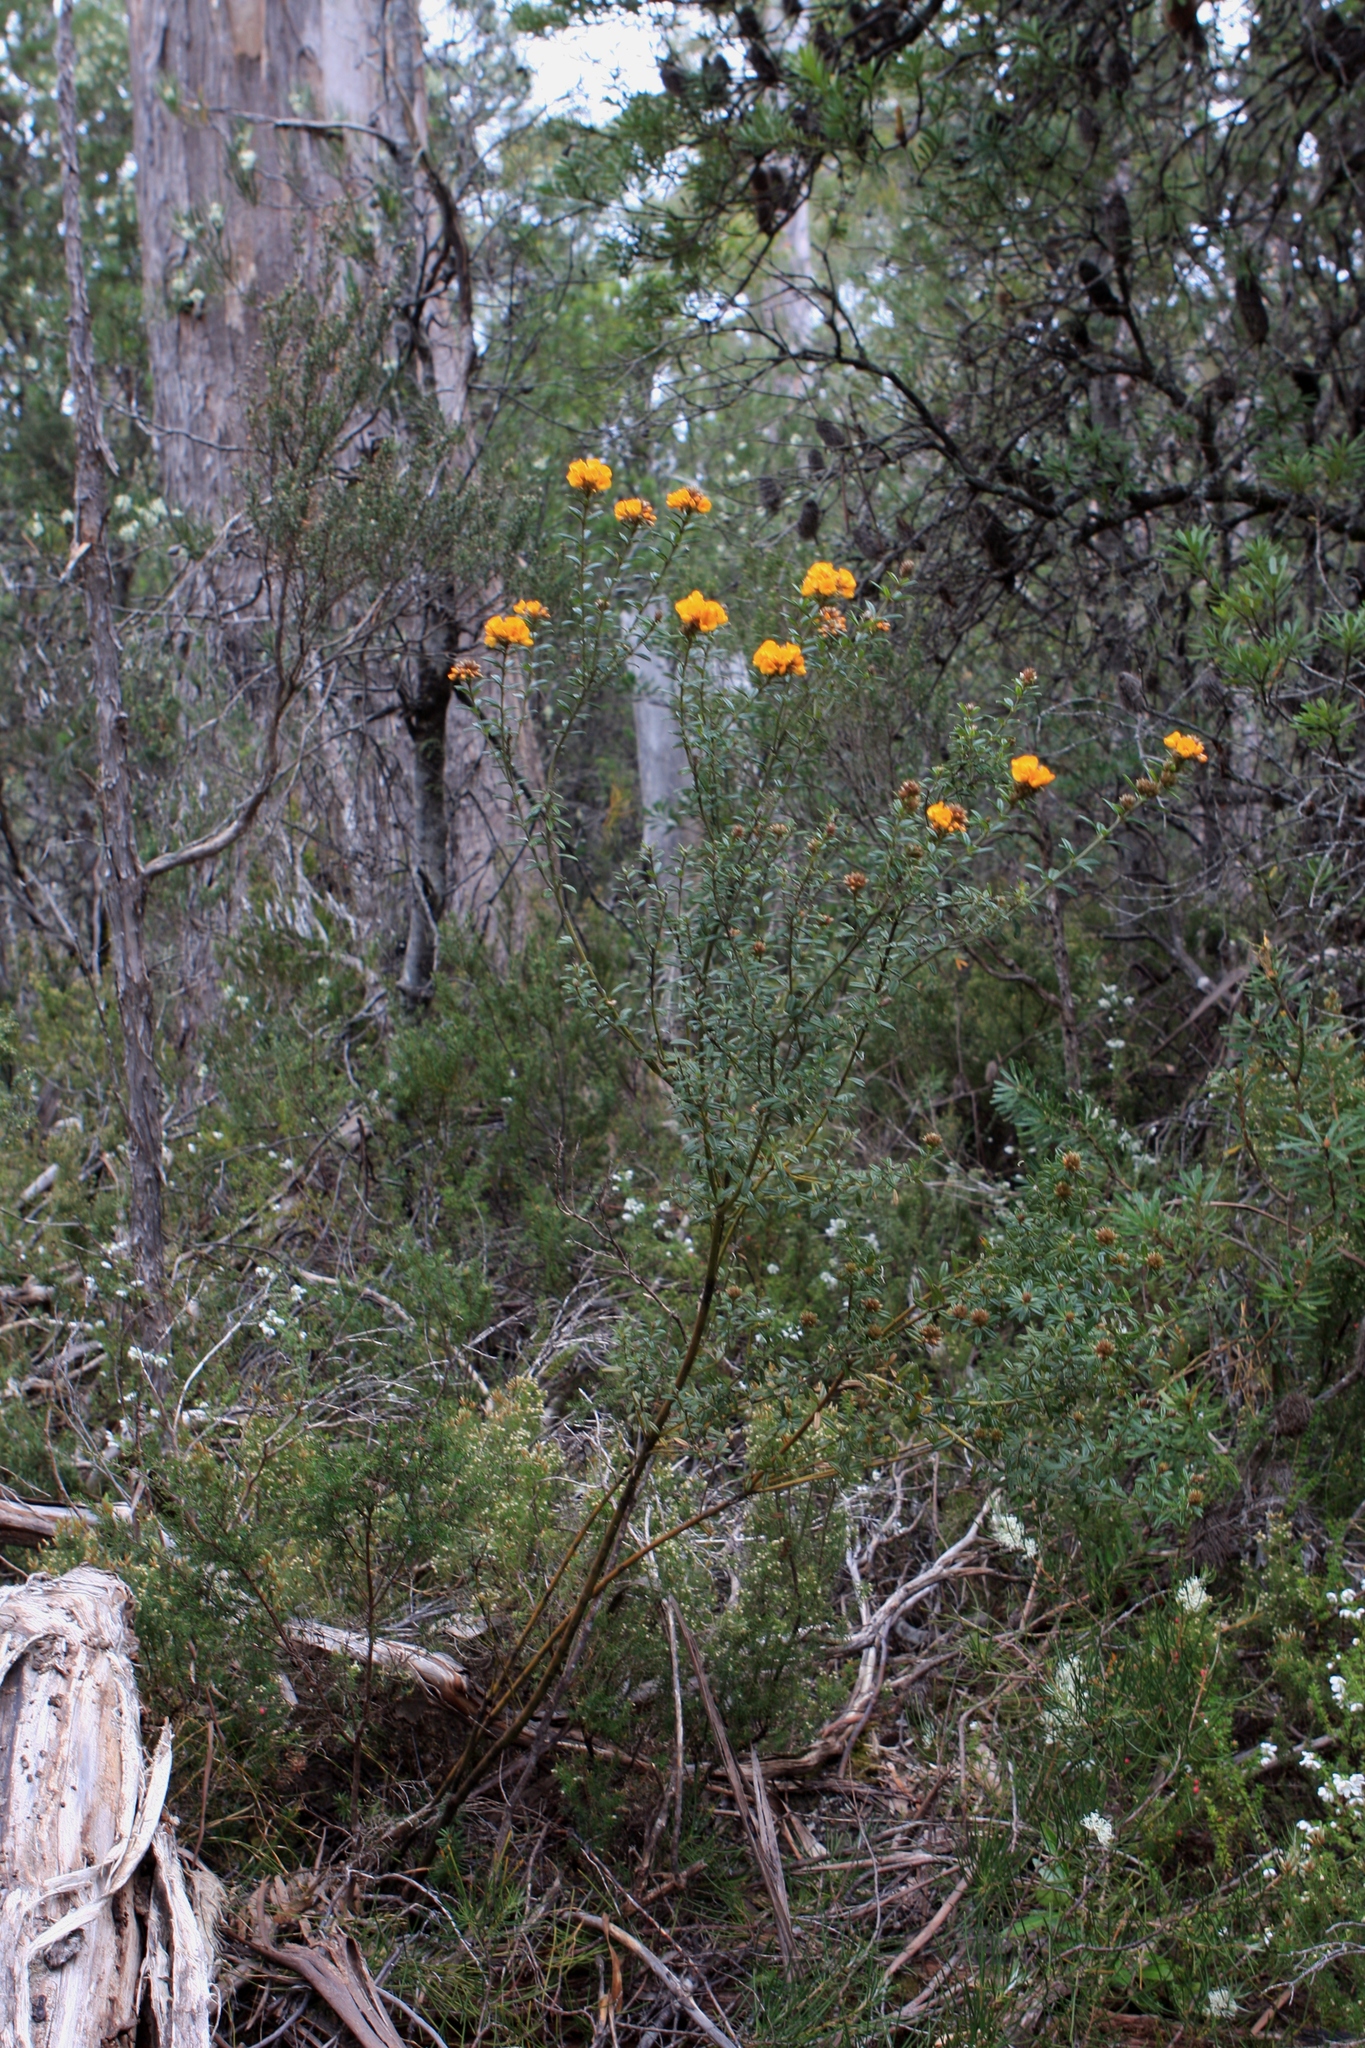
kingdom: Plantae
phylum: Tracheophyta
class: Magnoliopsida
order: Fabales
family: Fabaceae
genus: Oxylobium
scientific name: Oxylobium ellipticum
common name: Golden shaggy-pea
